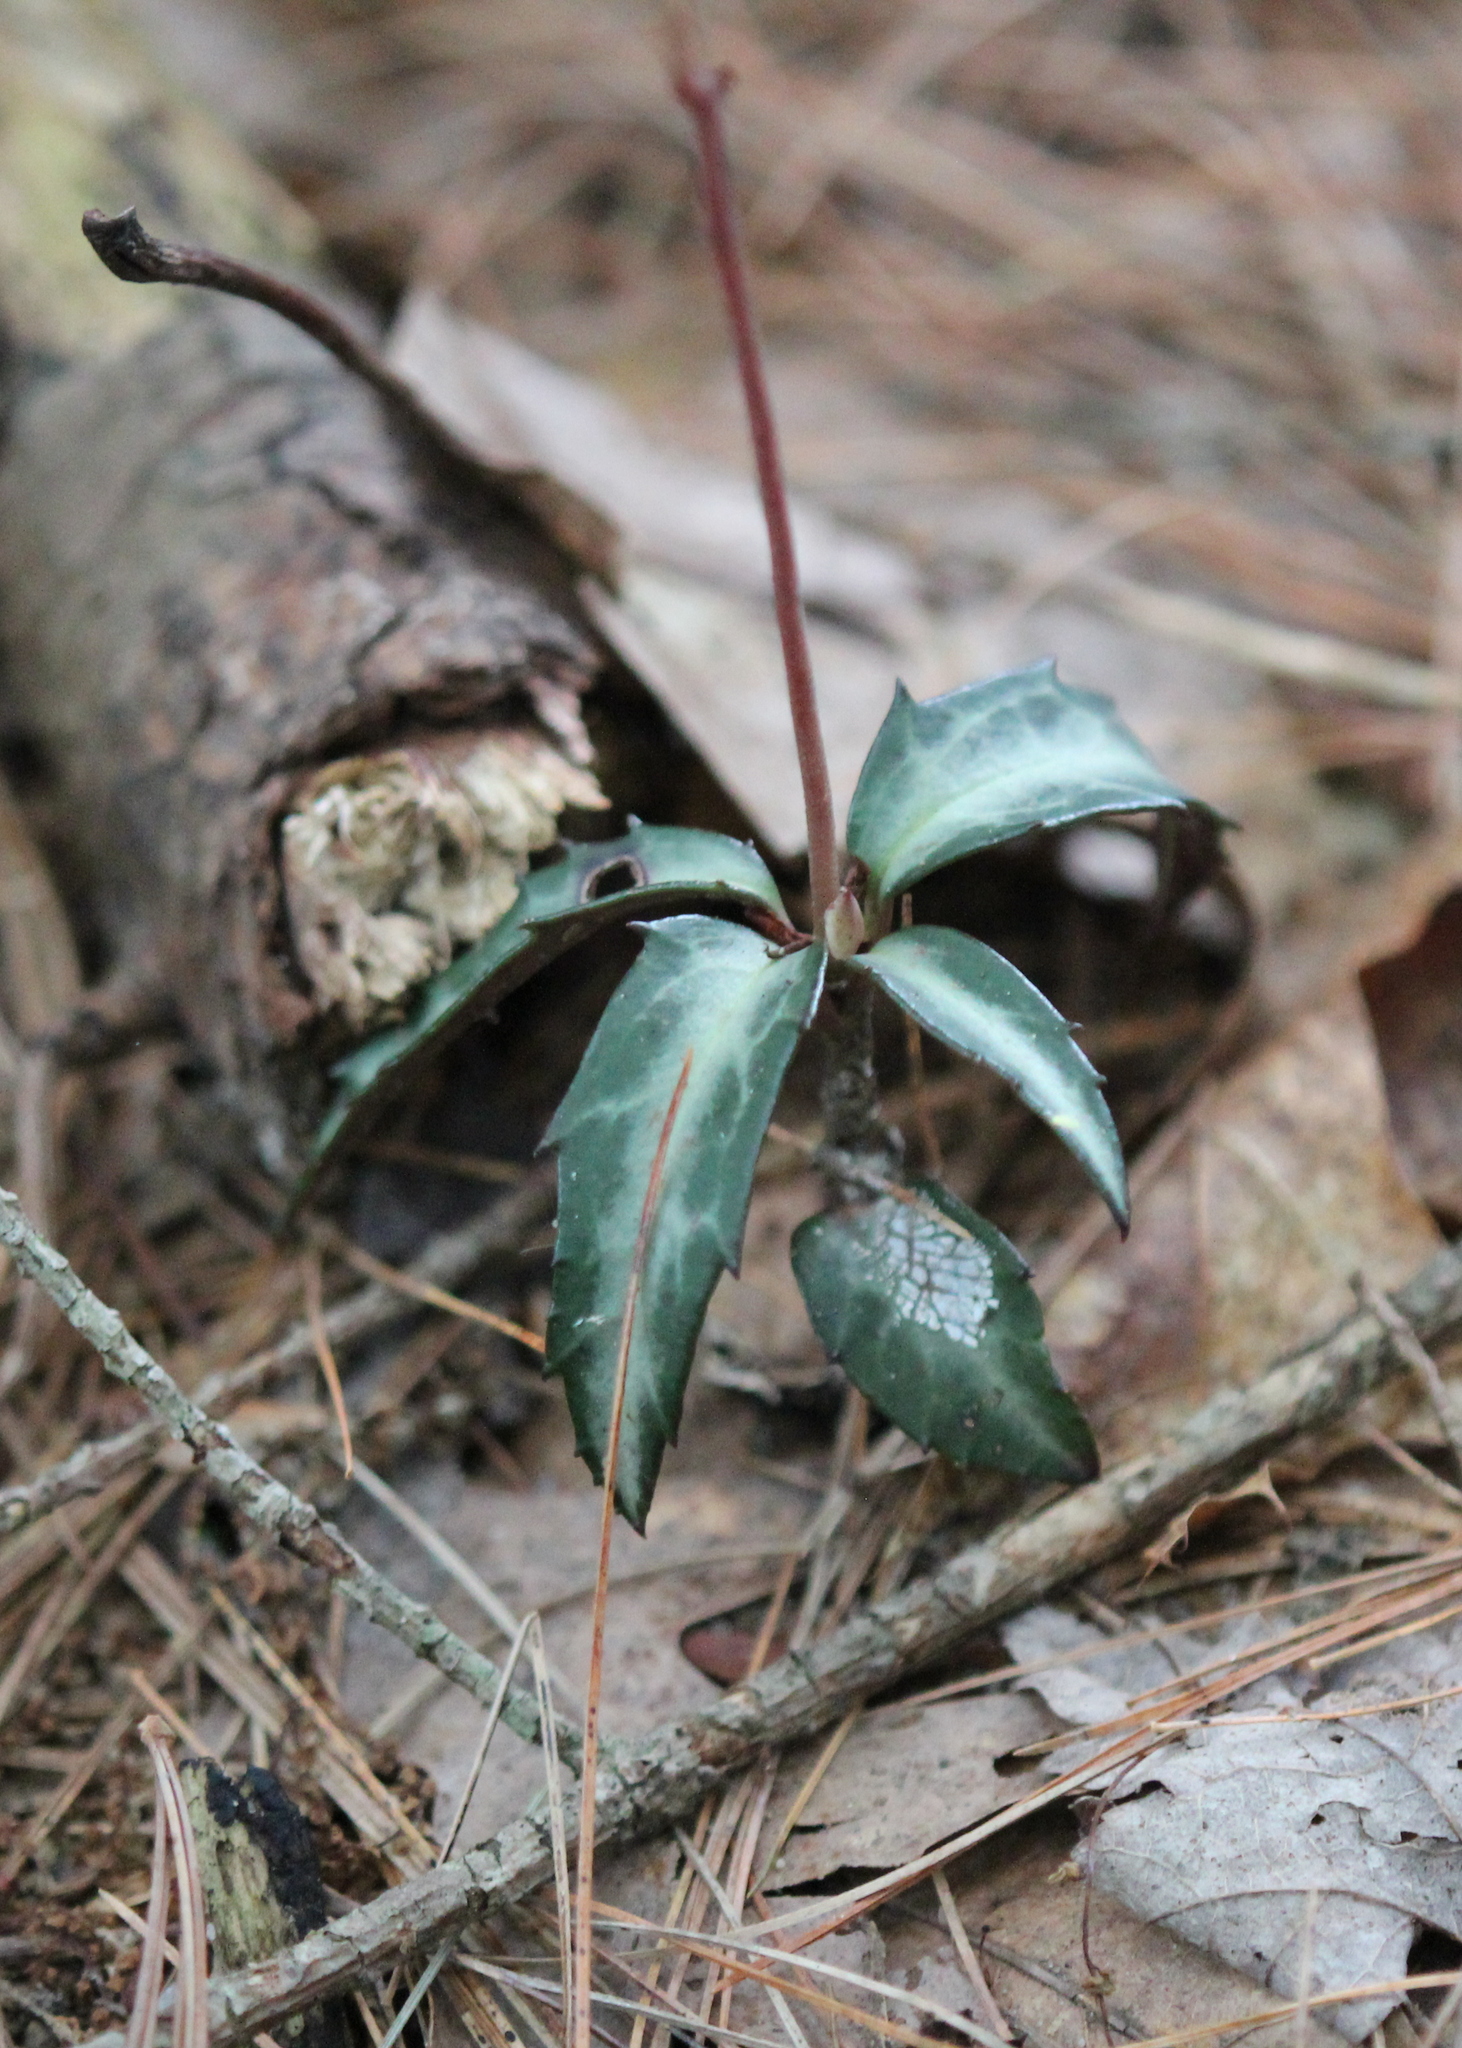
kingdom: Plantae
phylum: Tracheophyta
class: Magnoliopsida
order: Ericales
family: Ericaceae
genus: Chimaphila
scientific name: Chimaphila maculata
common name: Spotted pipsissewa
